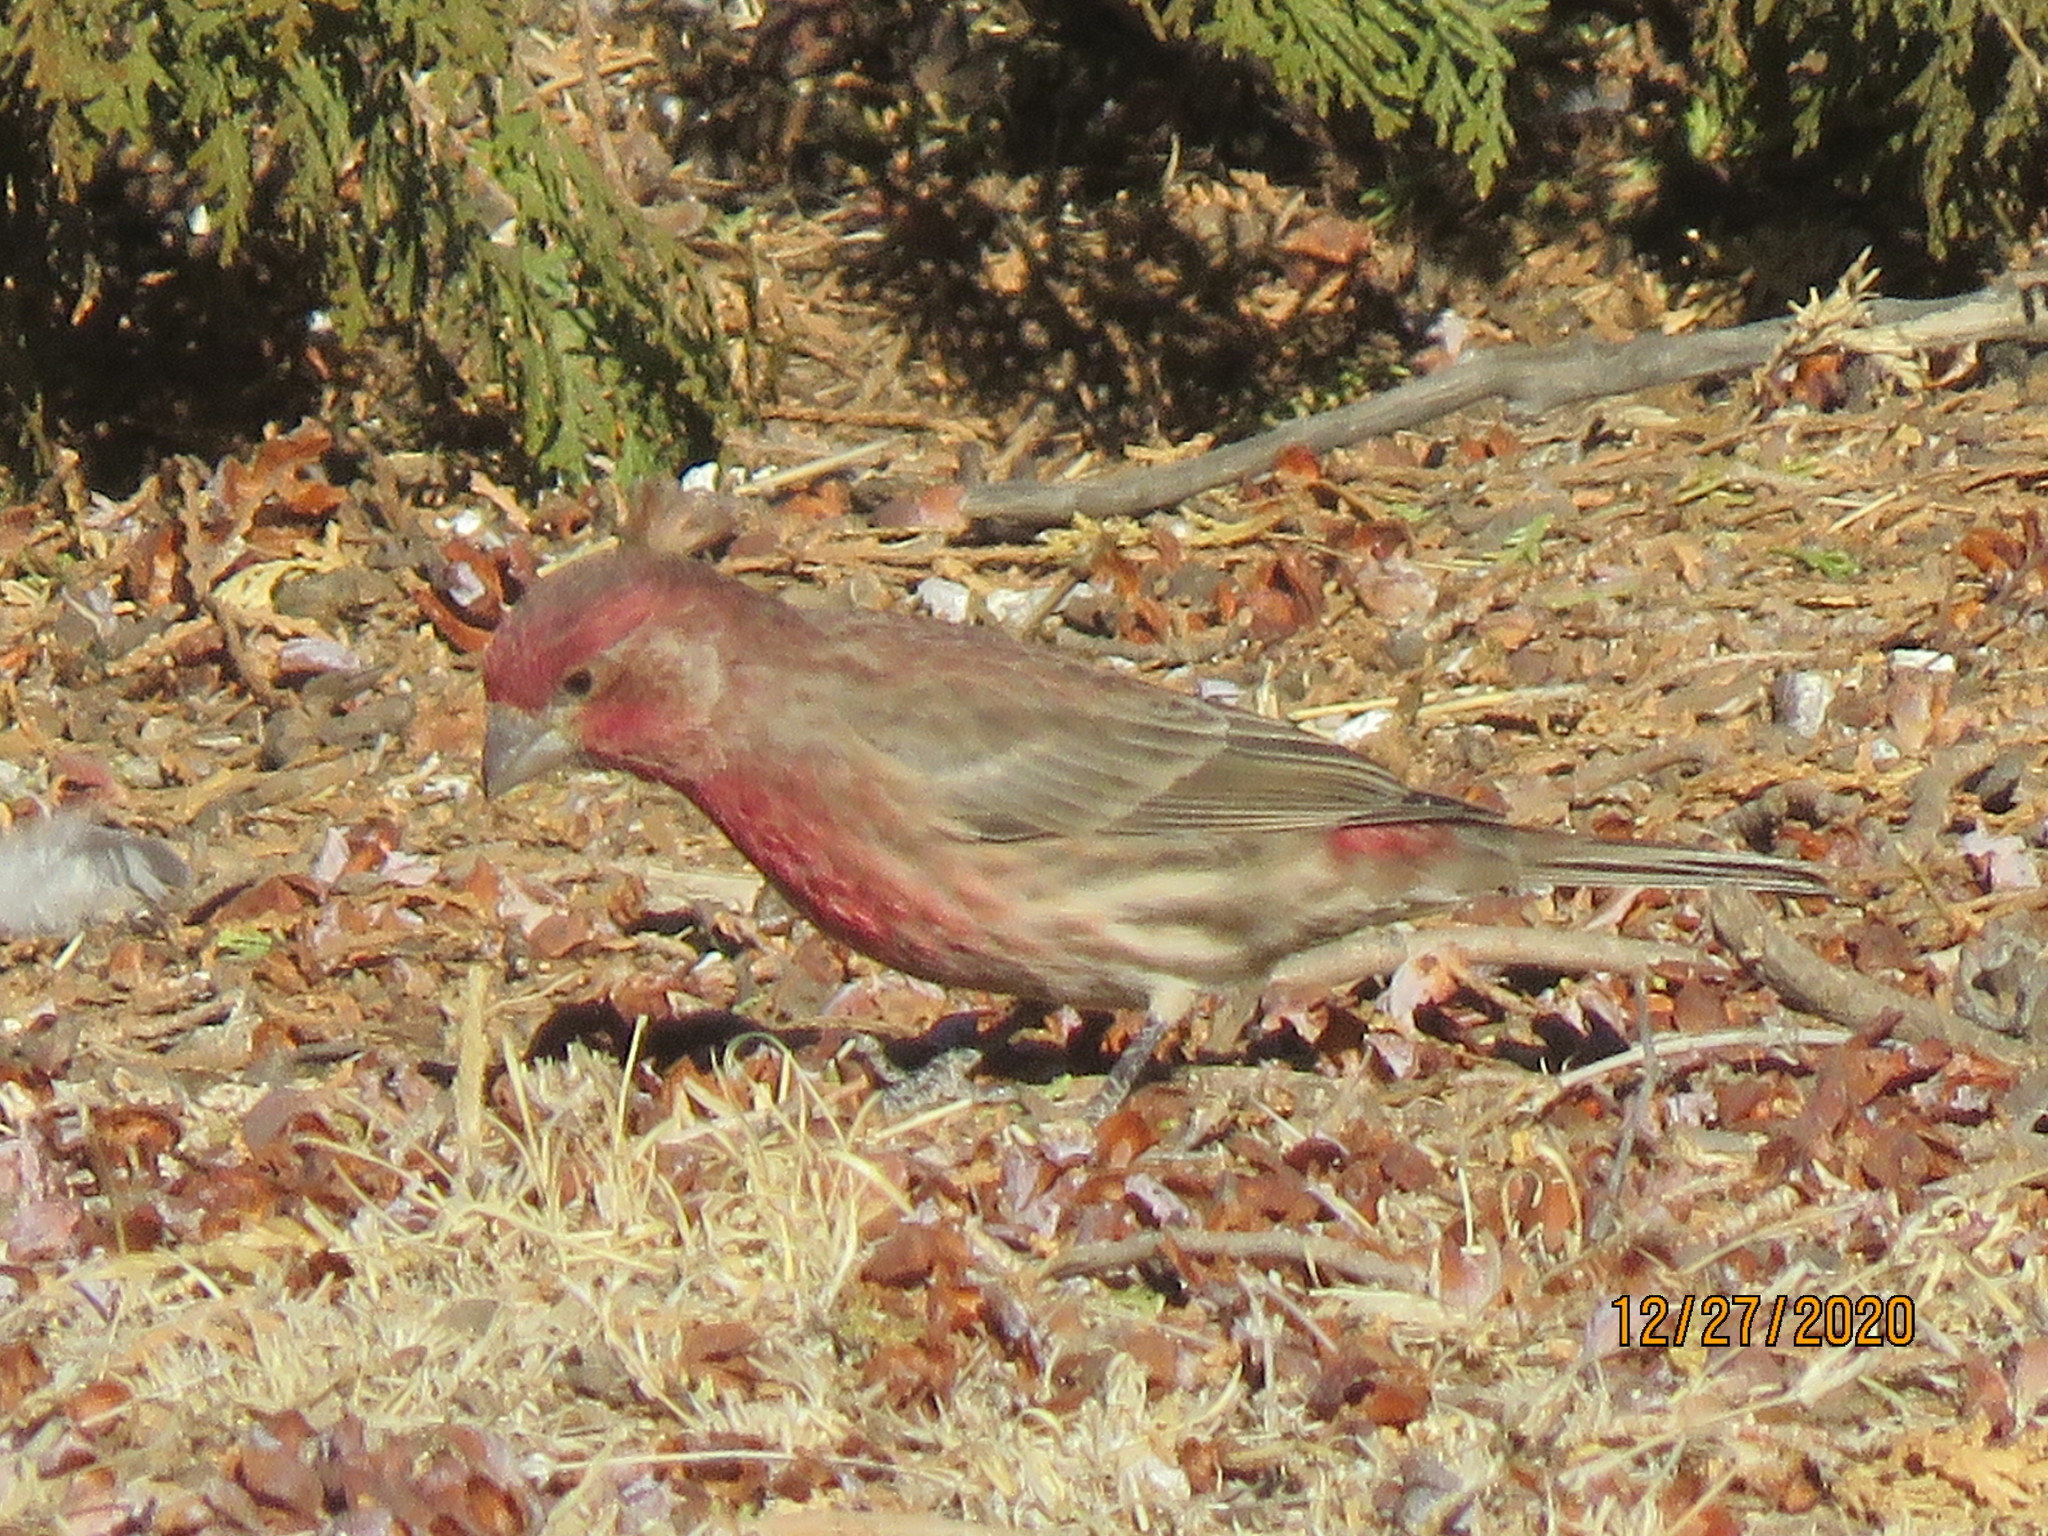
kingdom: Animalia
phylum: Chordata
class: Aves
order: Passeriformes
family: Fringillidae
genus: Haemorhous
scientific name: Haemorhous mexicanus
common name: House finch
